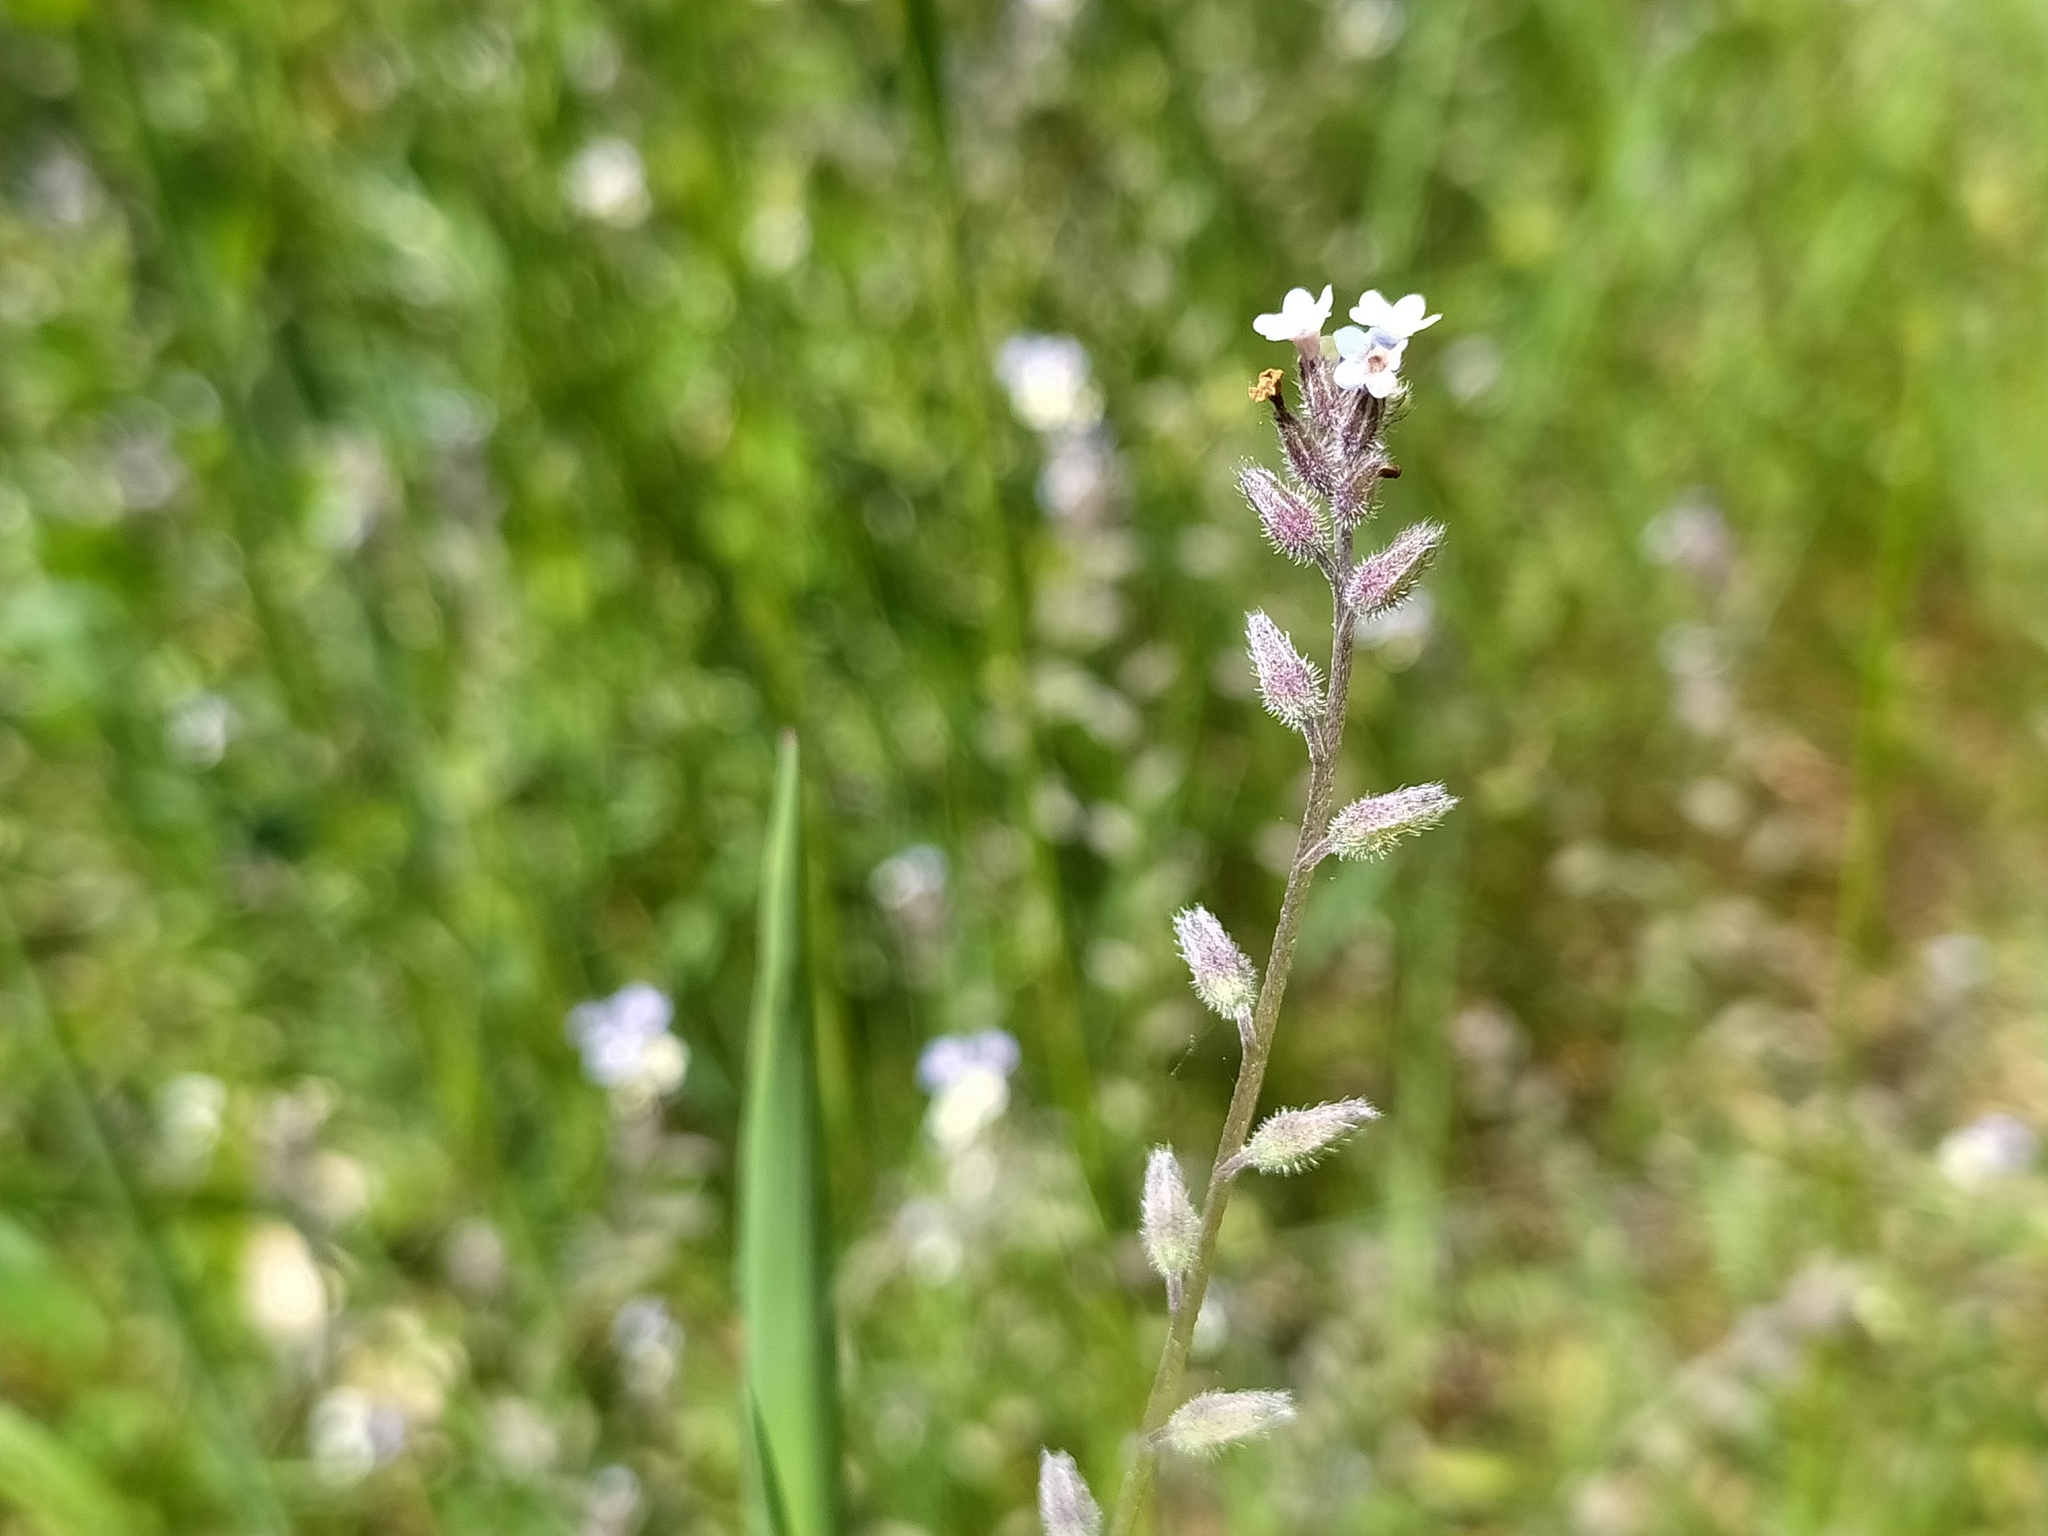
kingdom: Plantae
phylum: Tracheophyta
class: Magnoliopsida
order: Boraginales
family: Boraginaceae
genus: Myosotis
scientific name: Myosotis discolor
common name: Changing forget-me-not
